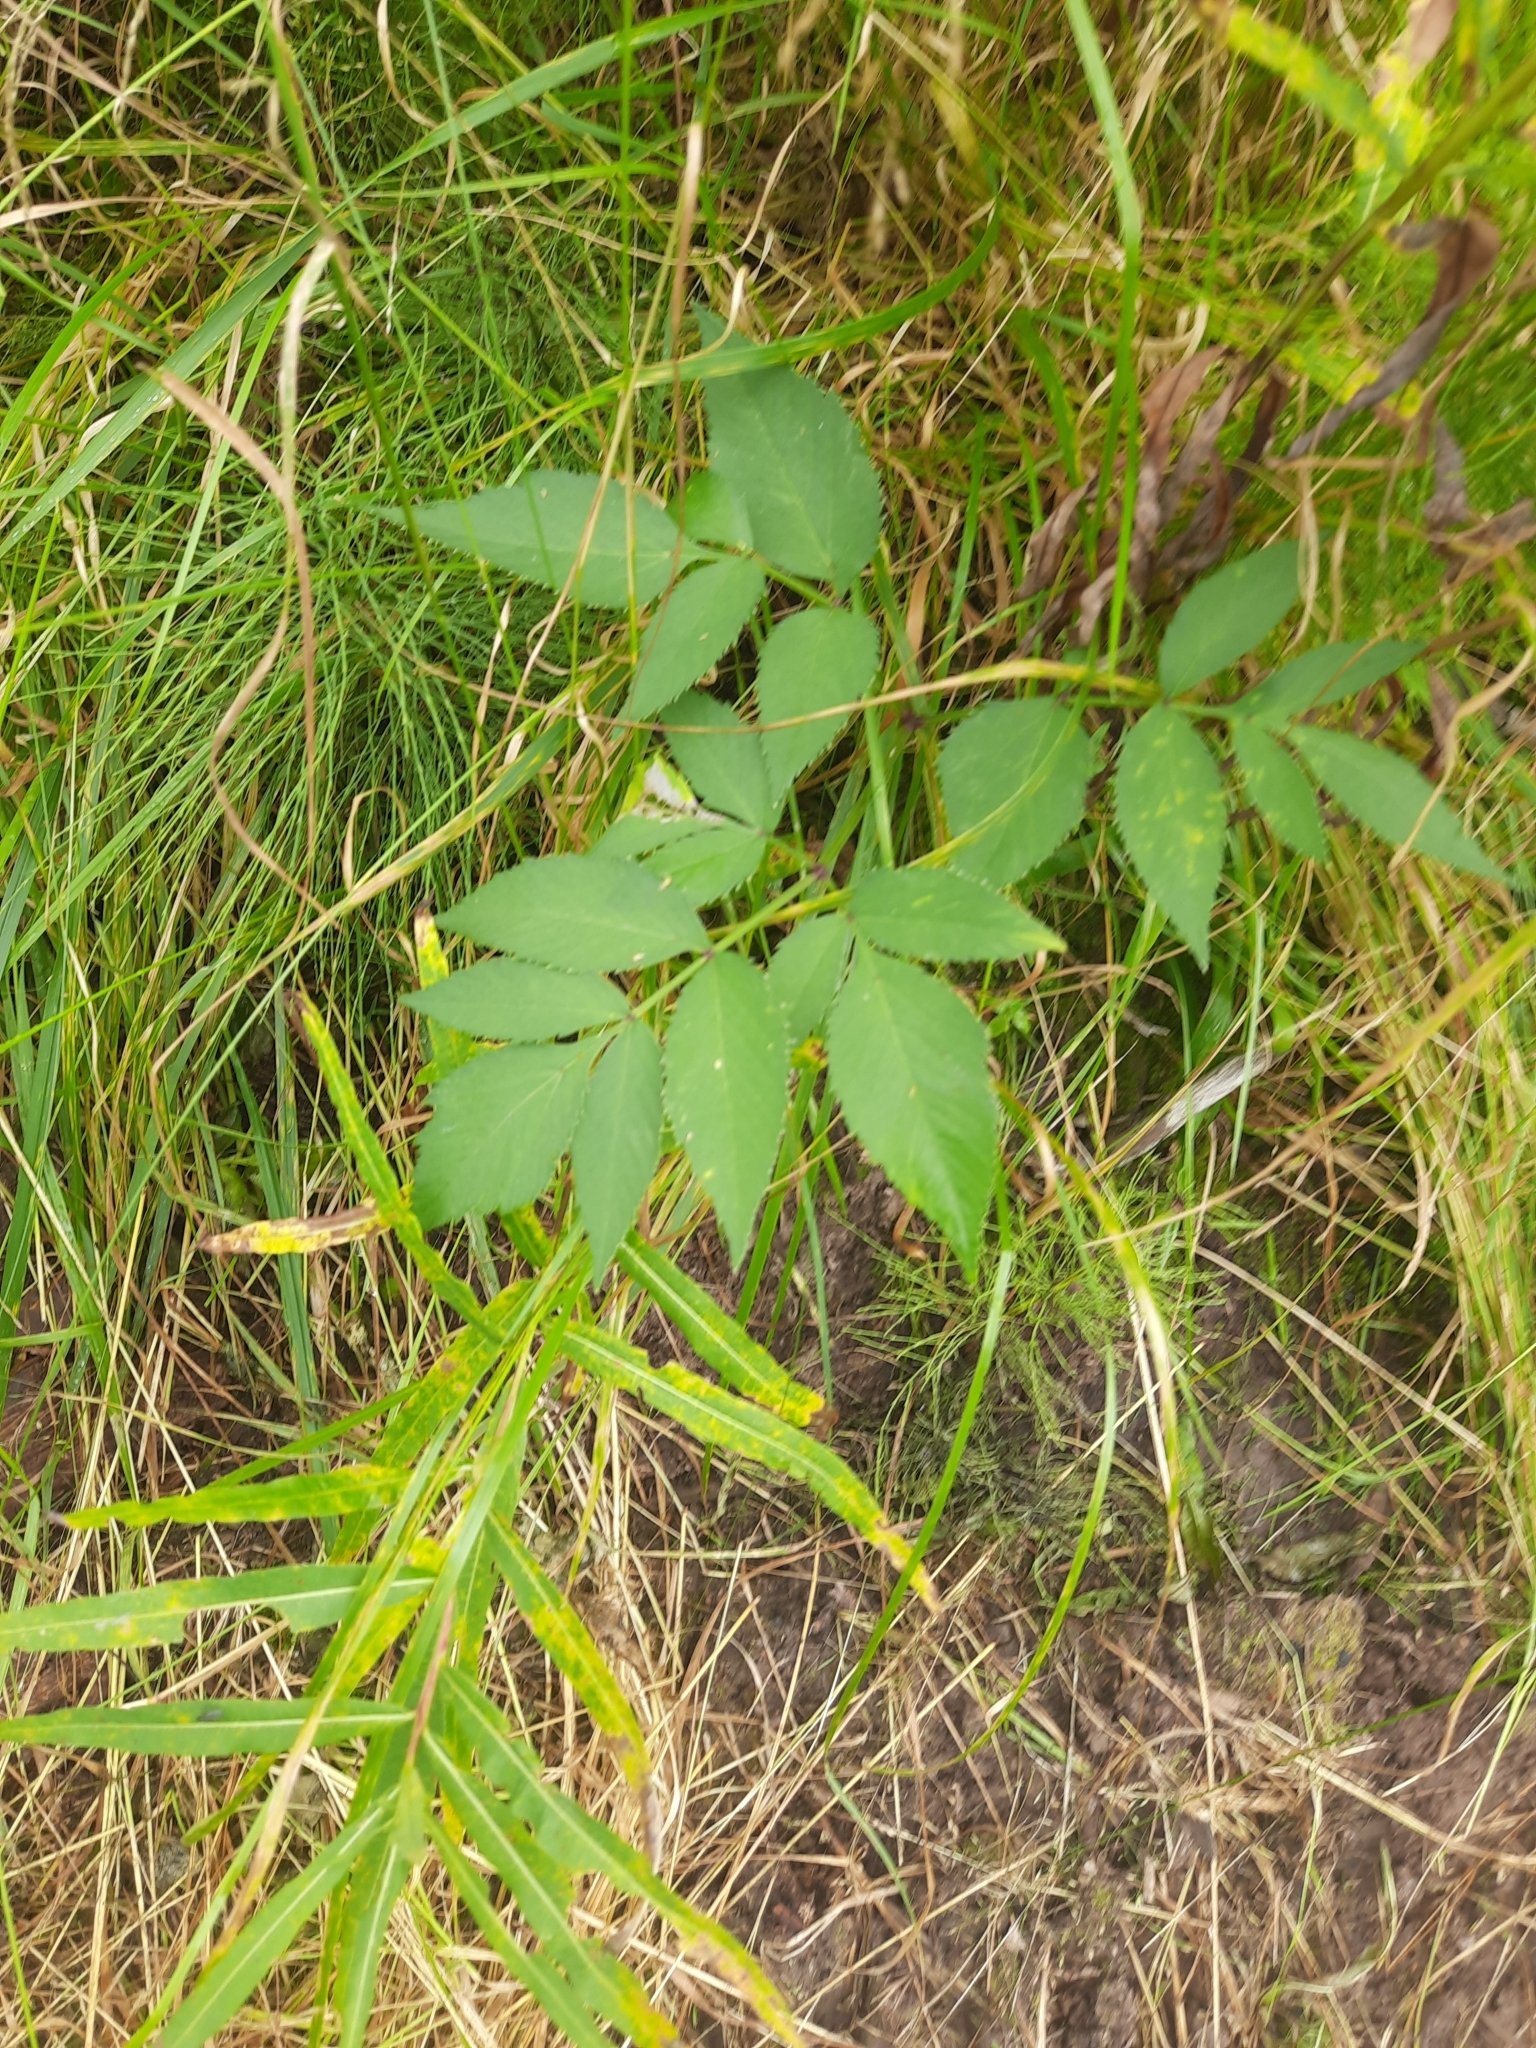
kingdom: Plantae
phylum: Tracheophyta
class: Magnoliopsida
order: Apiales
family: Apiaceae
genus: Angelica
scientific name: Angelica sylvestris
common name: Wild angelica
